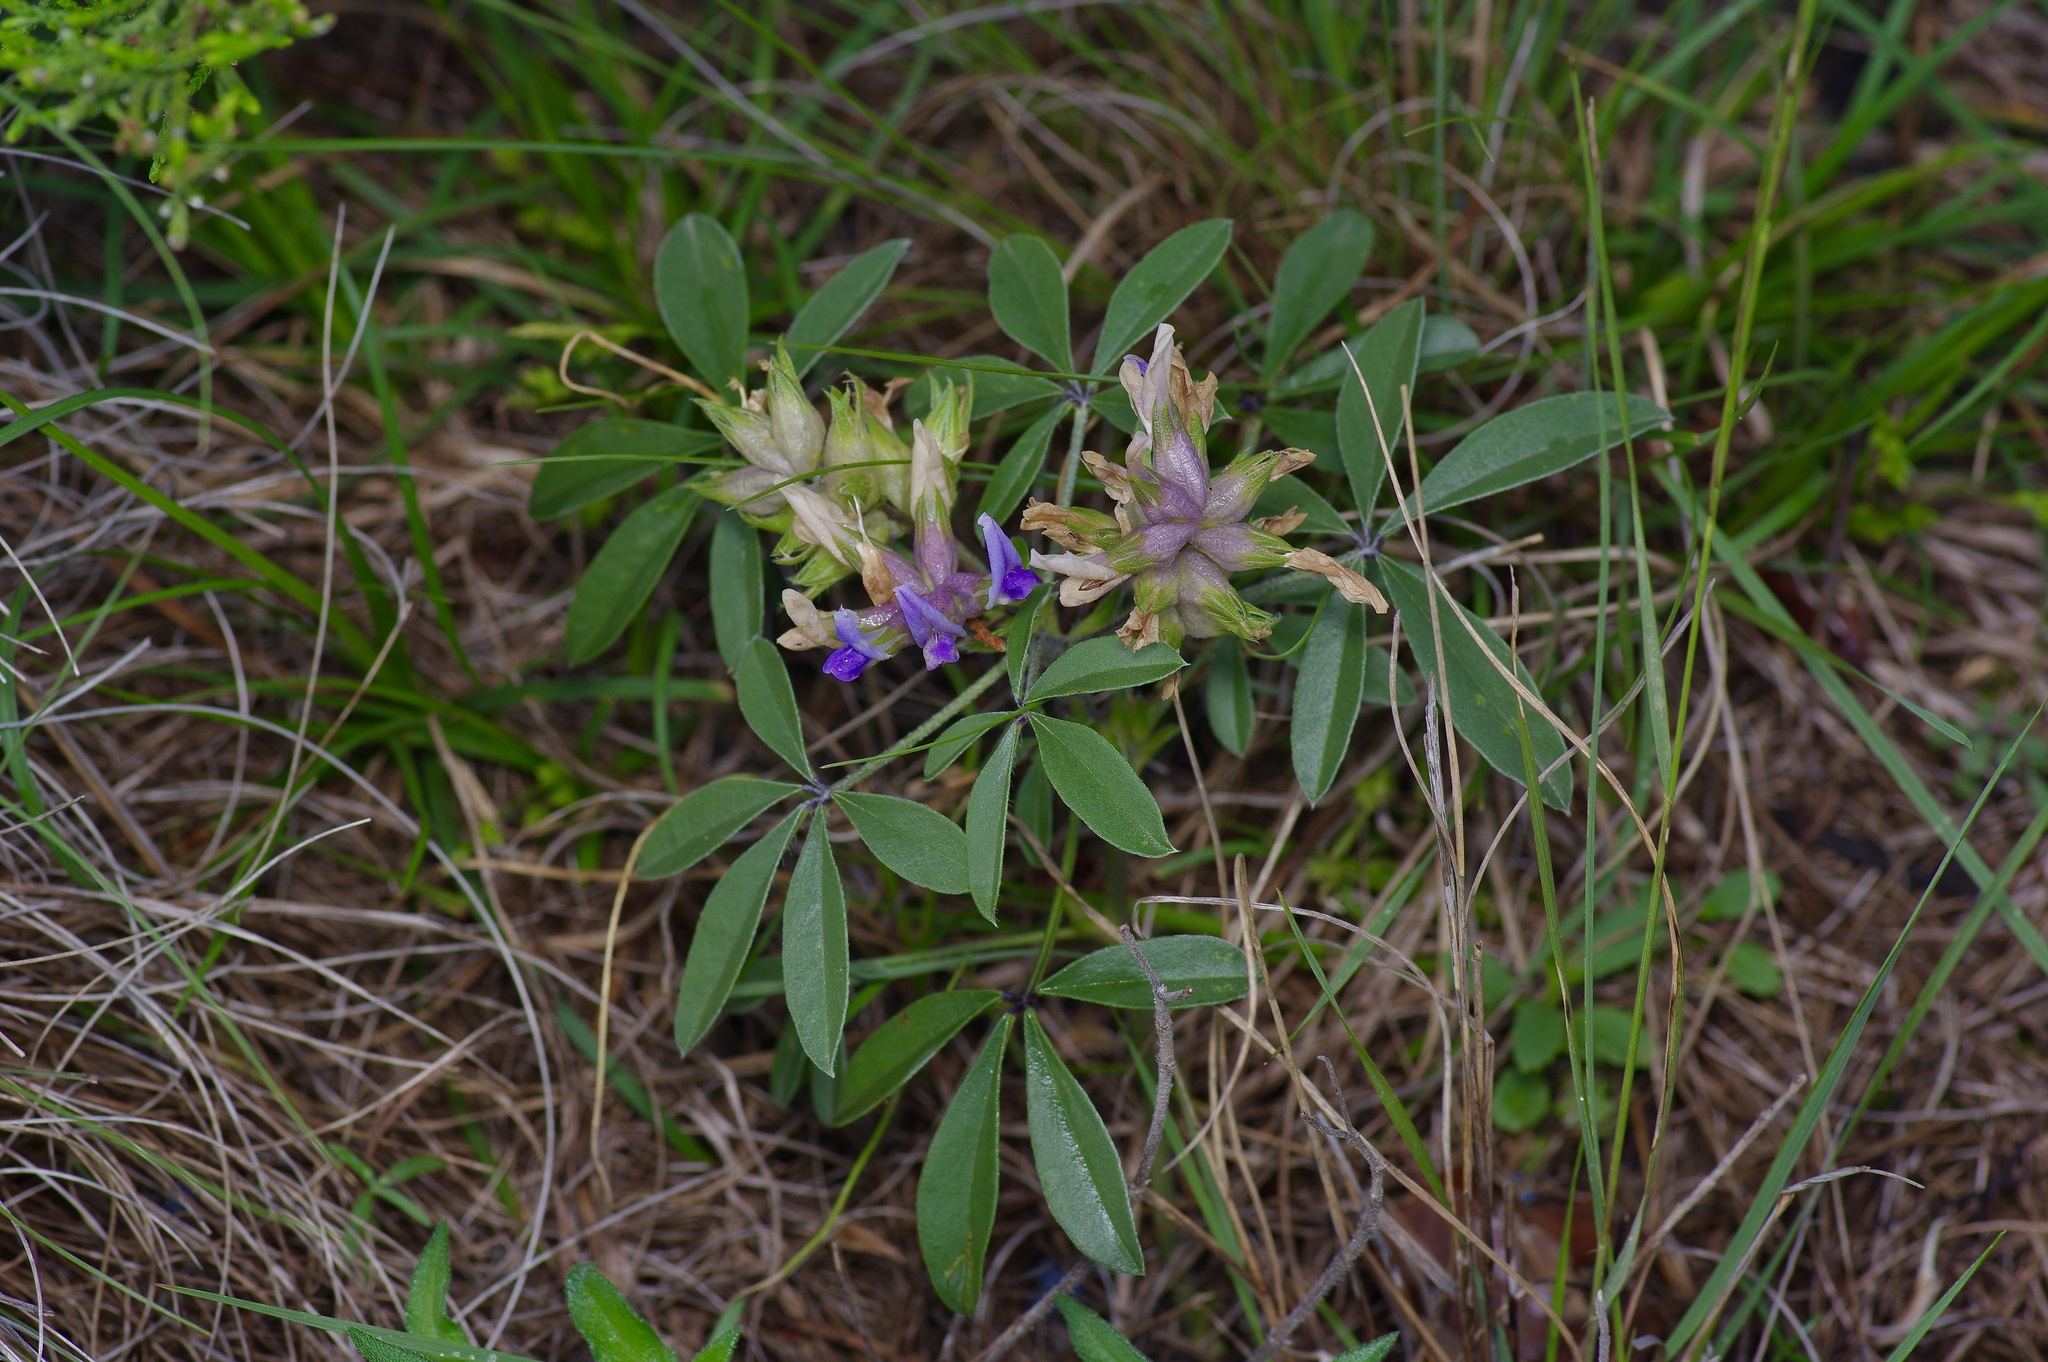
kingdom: Plantae
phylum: Tracheophyta
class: Magnoliopsida
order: Fabales
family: Fabaceae
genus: Pediomelum
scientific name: Pediomelum latestipulatum
